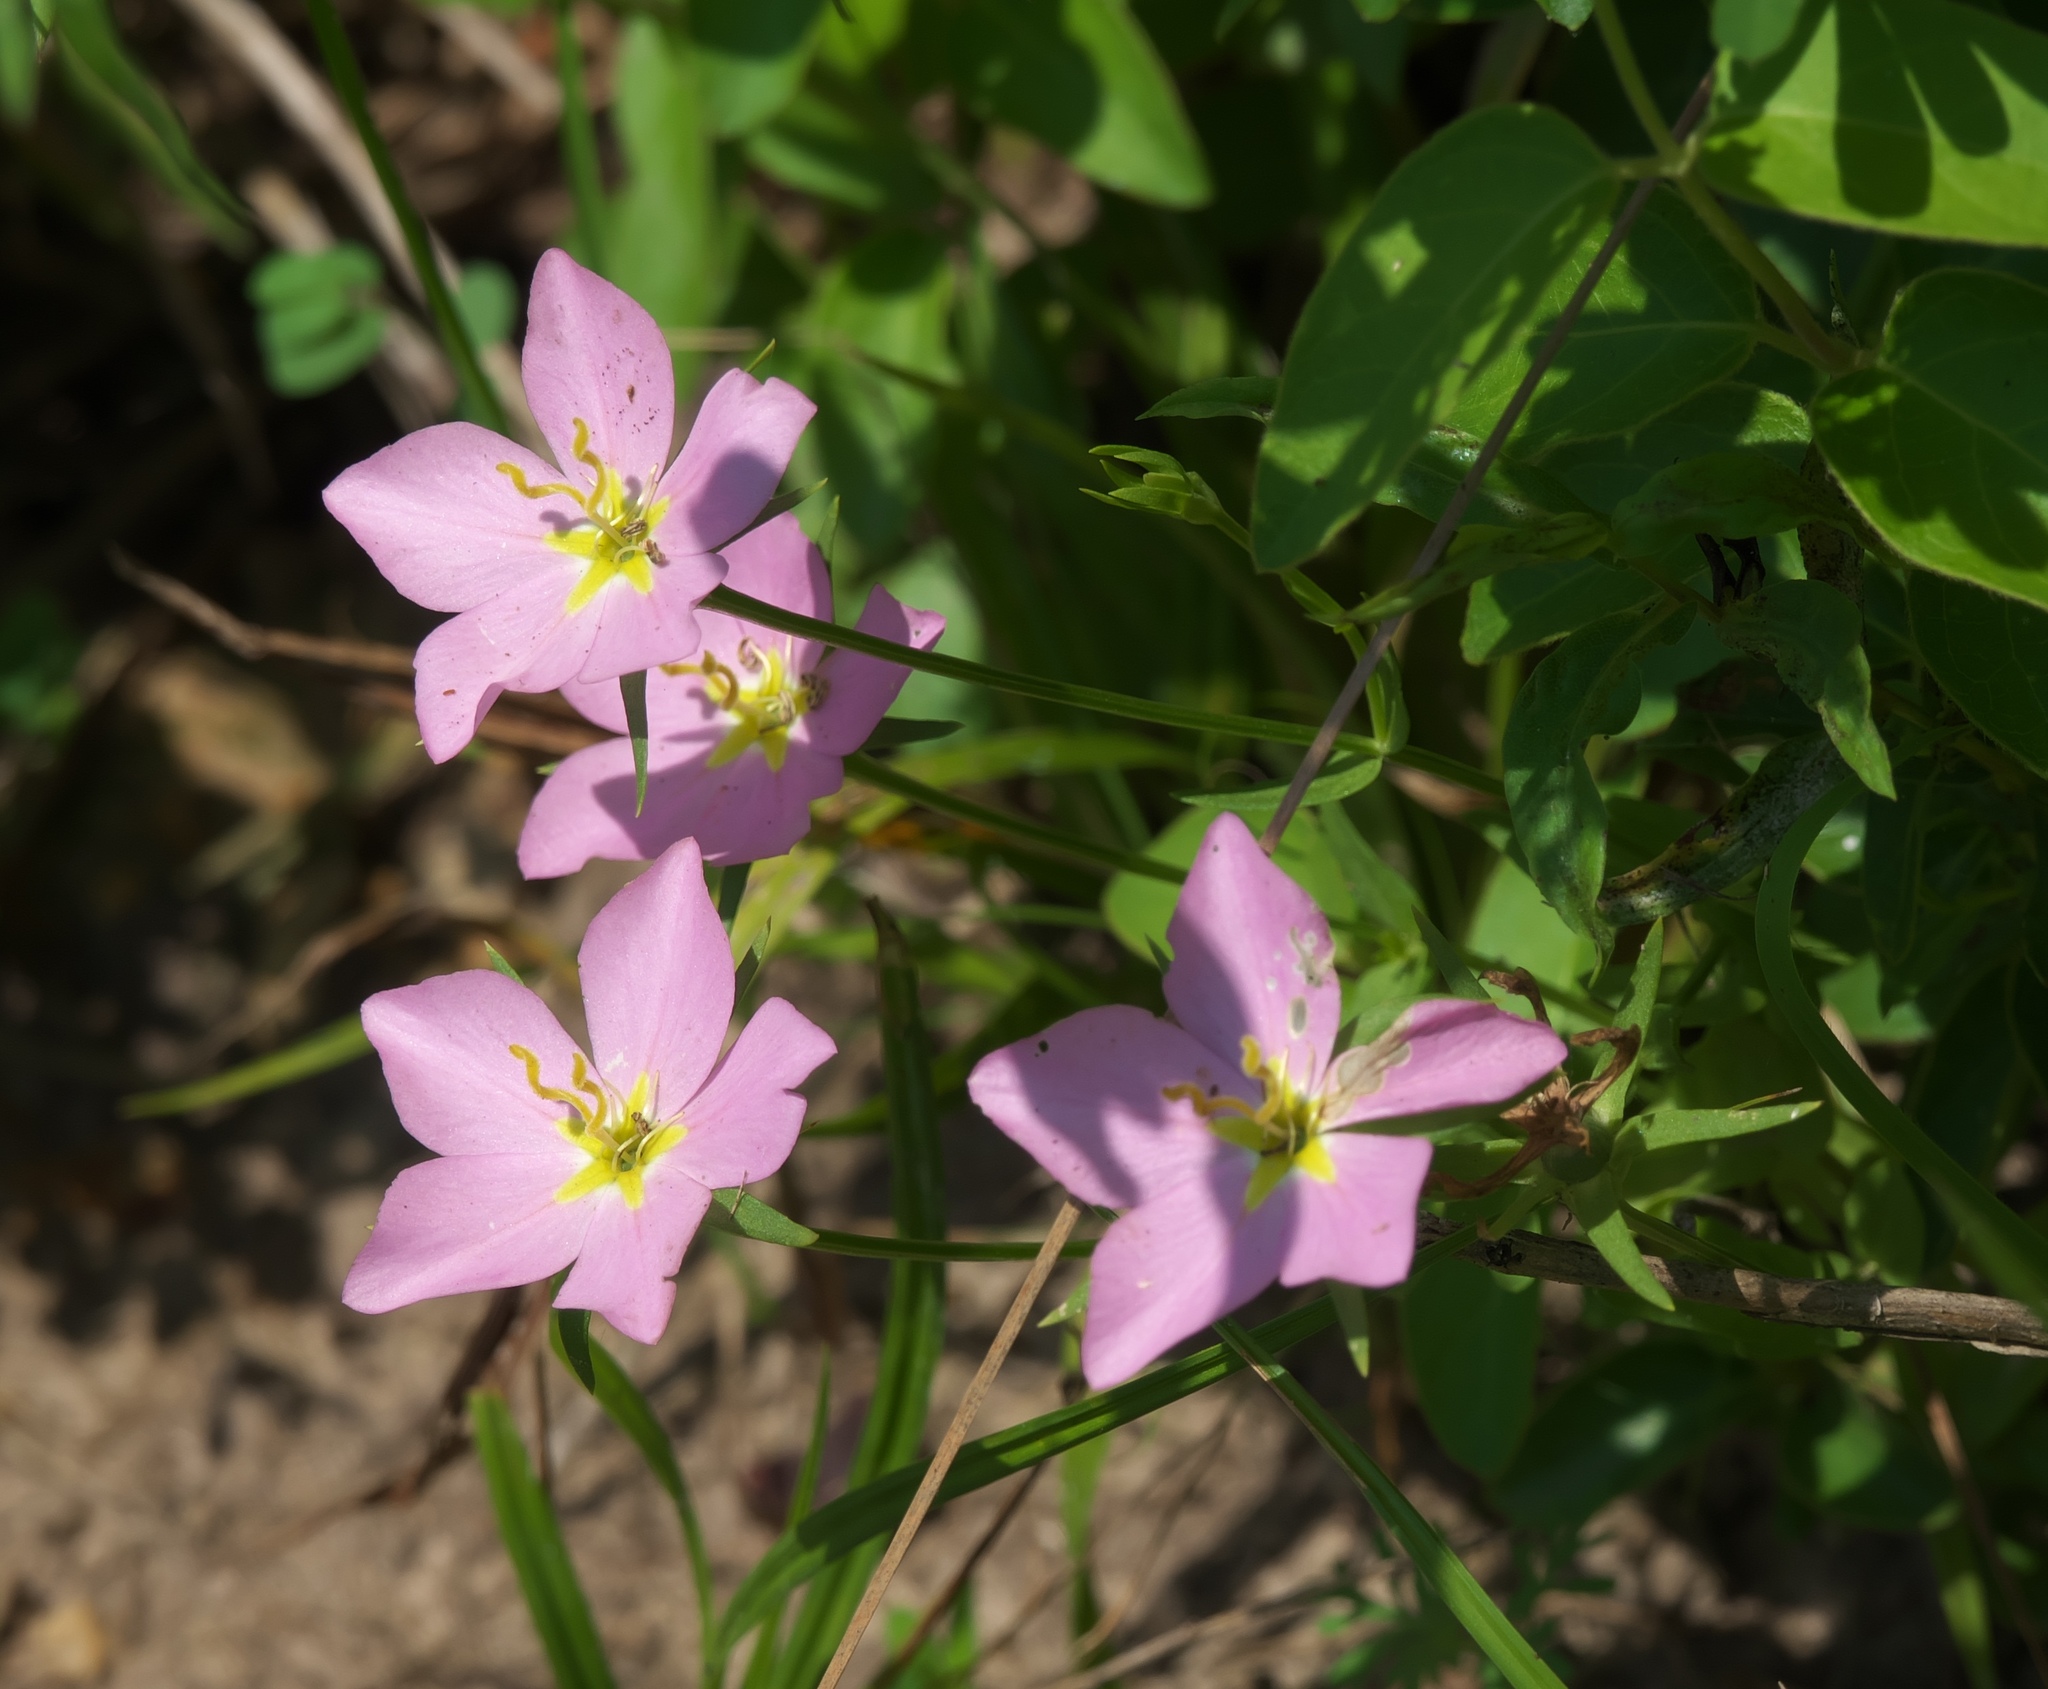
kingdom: Plantae
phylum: Tracheophyta
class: Magnoliopsida
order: Gentianales
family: Gentianaceae
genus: Sabatia
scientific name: Sabatia campestris
